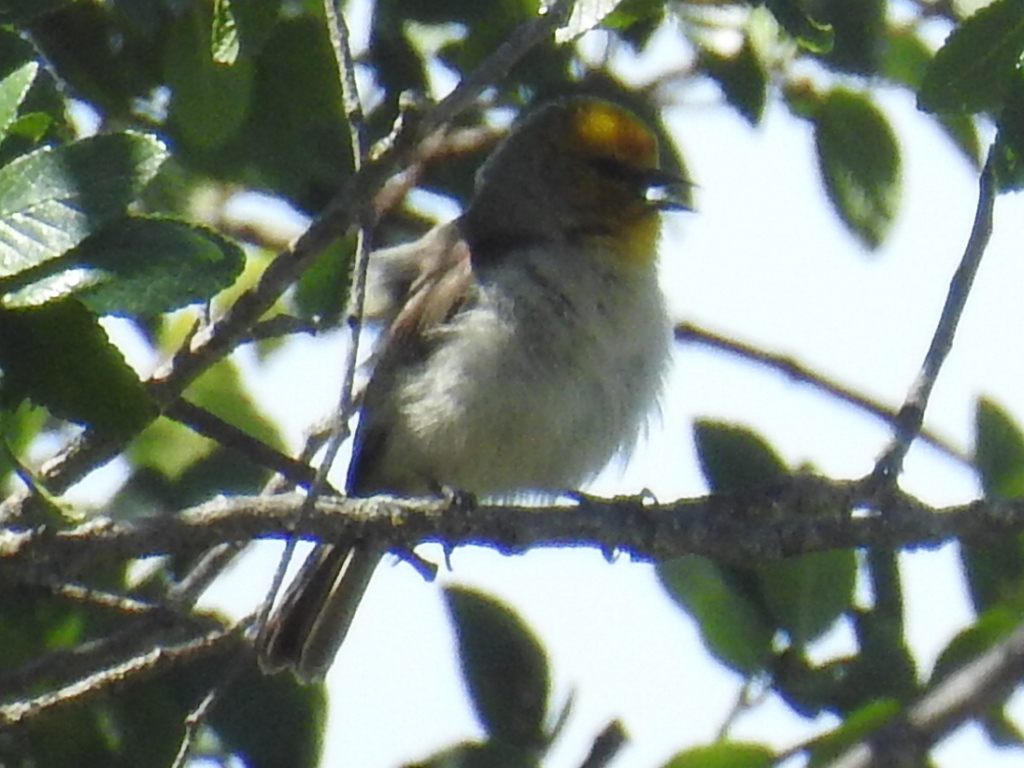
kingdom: Animalia
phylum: Chordata
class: Aves
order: Passeriformes
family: Remizidae
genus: Auriparus
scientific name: Auriparus flaviceps
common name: Verdin
